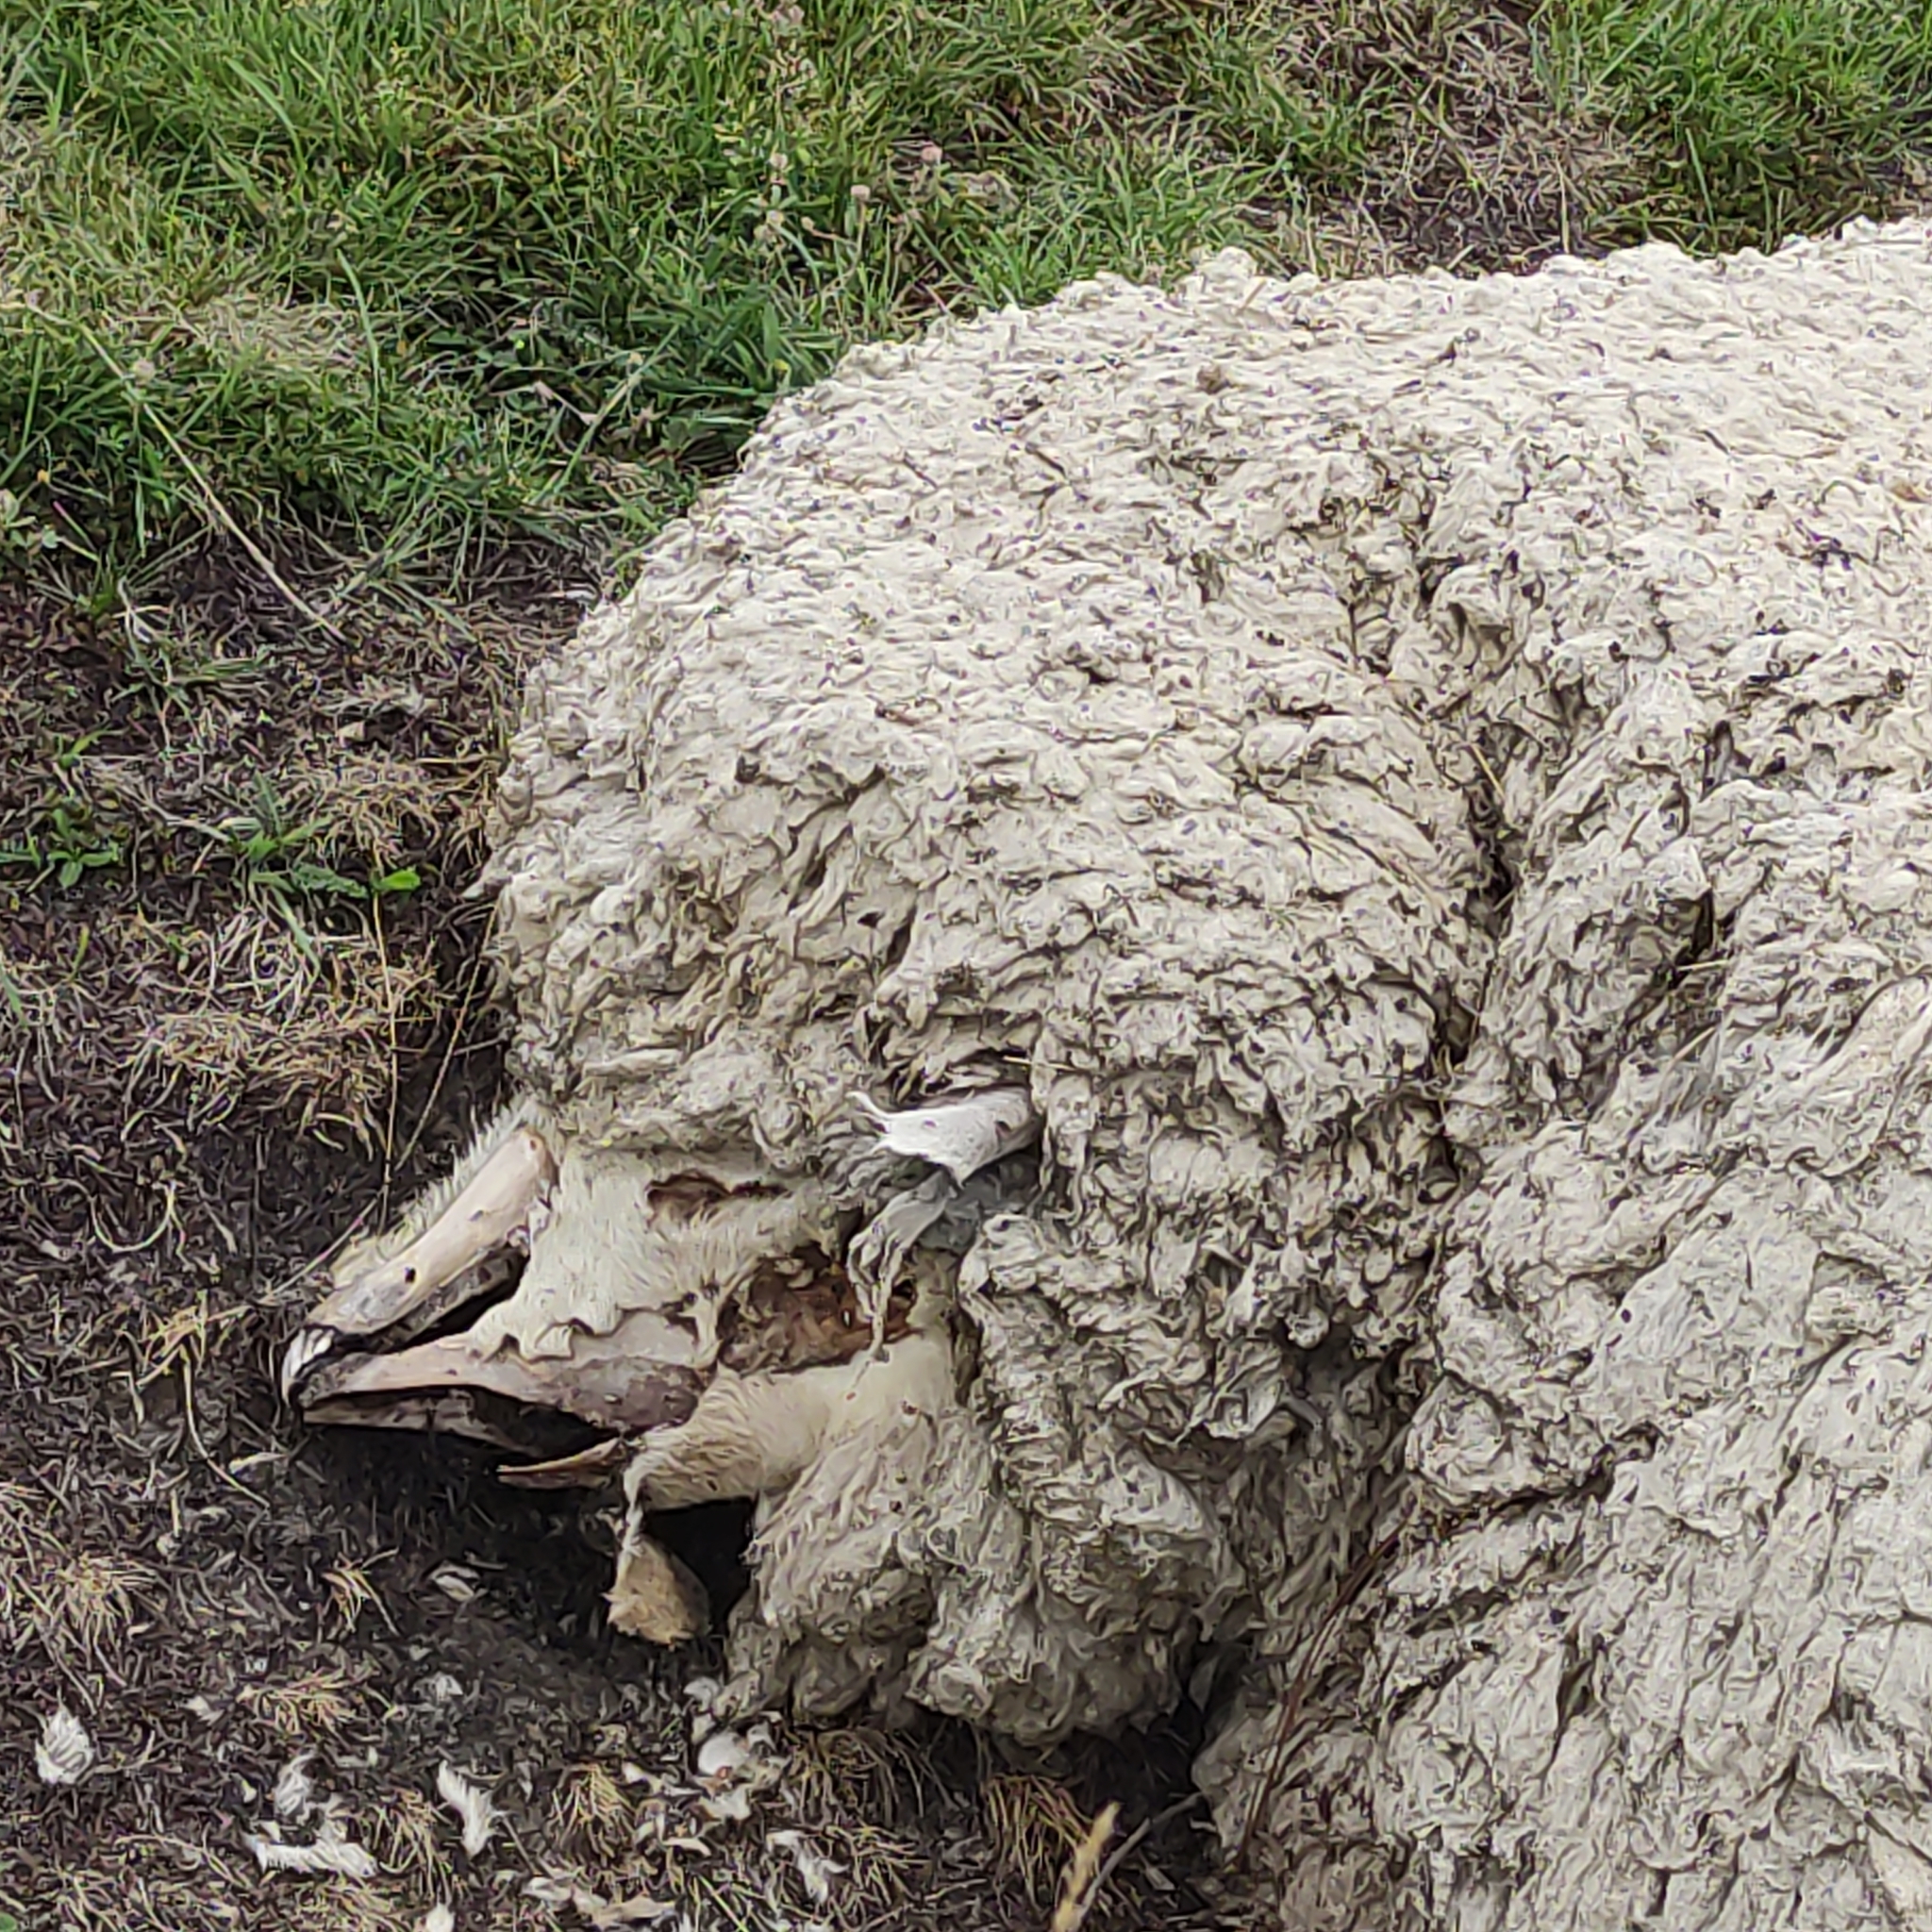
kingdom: Animalia
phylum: Chordata
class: Mammalia
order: Artiodactyla
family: Bovidae
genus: Ovis
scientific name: Ovis aries
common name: Domestic sheep
